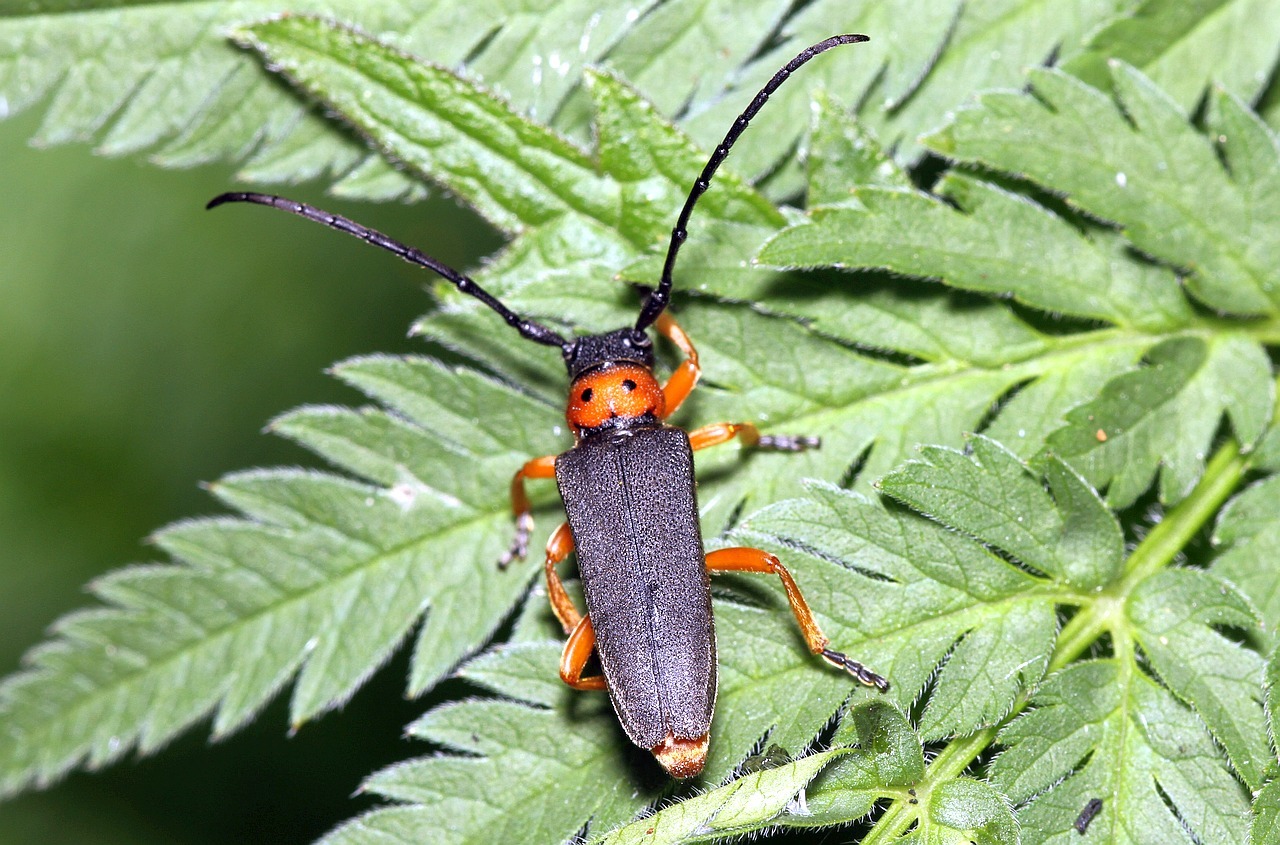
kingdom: Animalia
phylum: Arthropoda
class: Insecta
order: Coleoptera
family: Cerambycidae
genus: Phytoecia
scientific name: Phytoecia affinis
